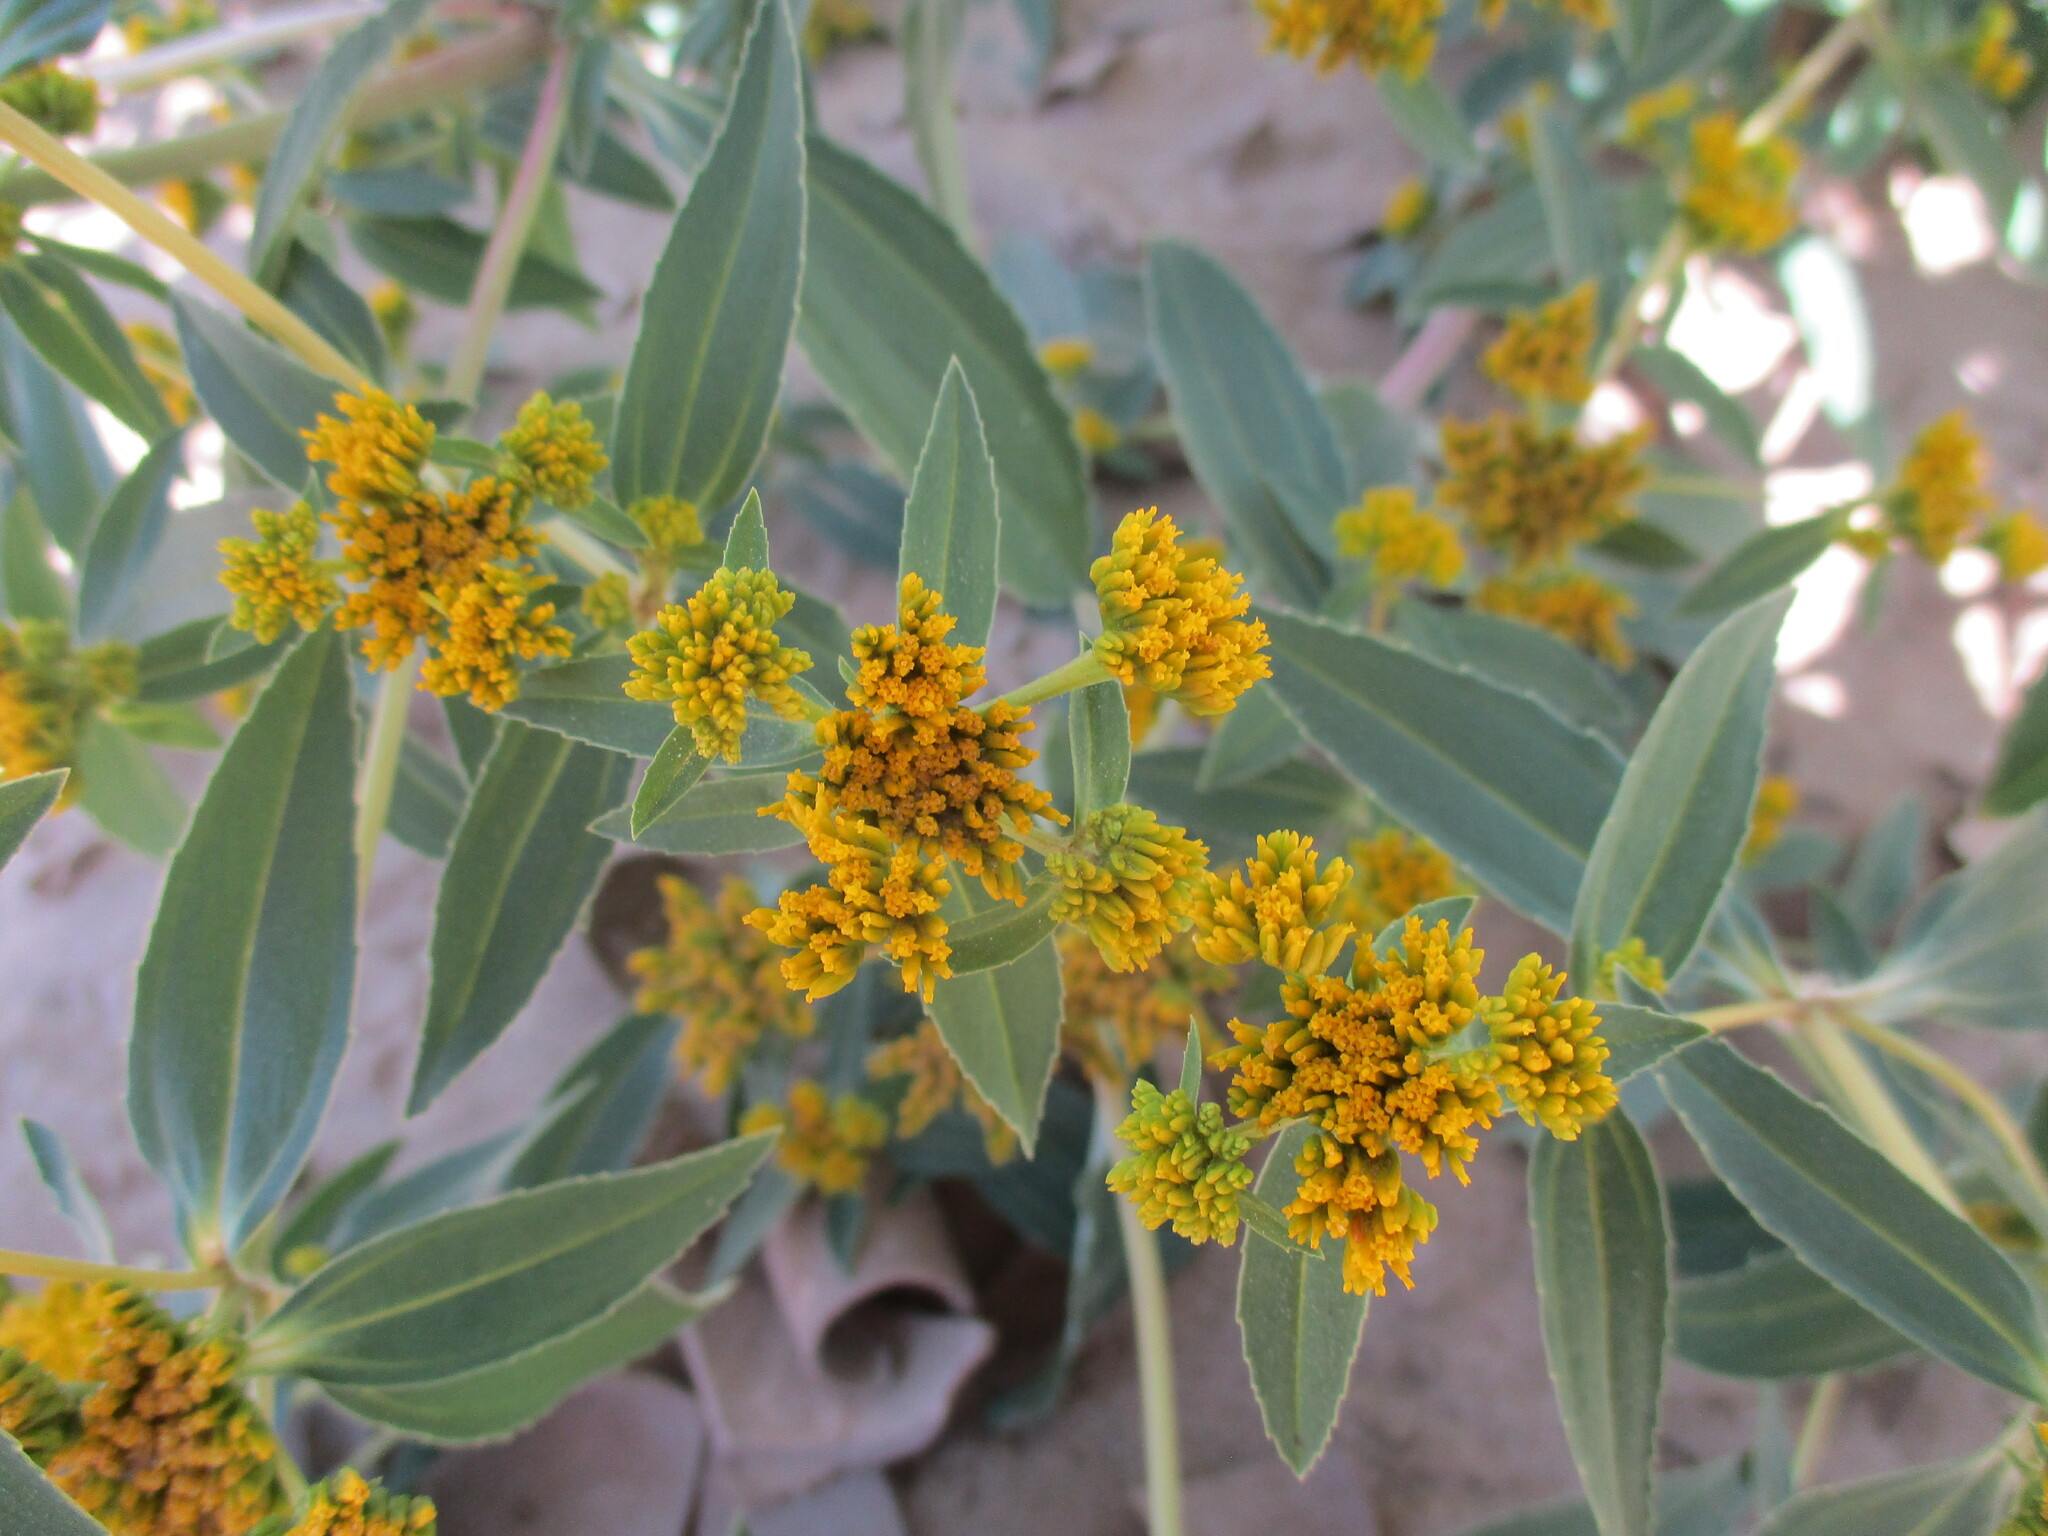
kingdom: Plantae
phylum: Tracheophyta
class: Magnoliopsida
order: Asterales
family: Asteraceae
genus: Flaveria
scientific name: Flaveria bidentis
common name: Coastal plain yellowtops
